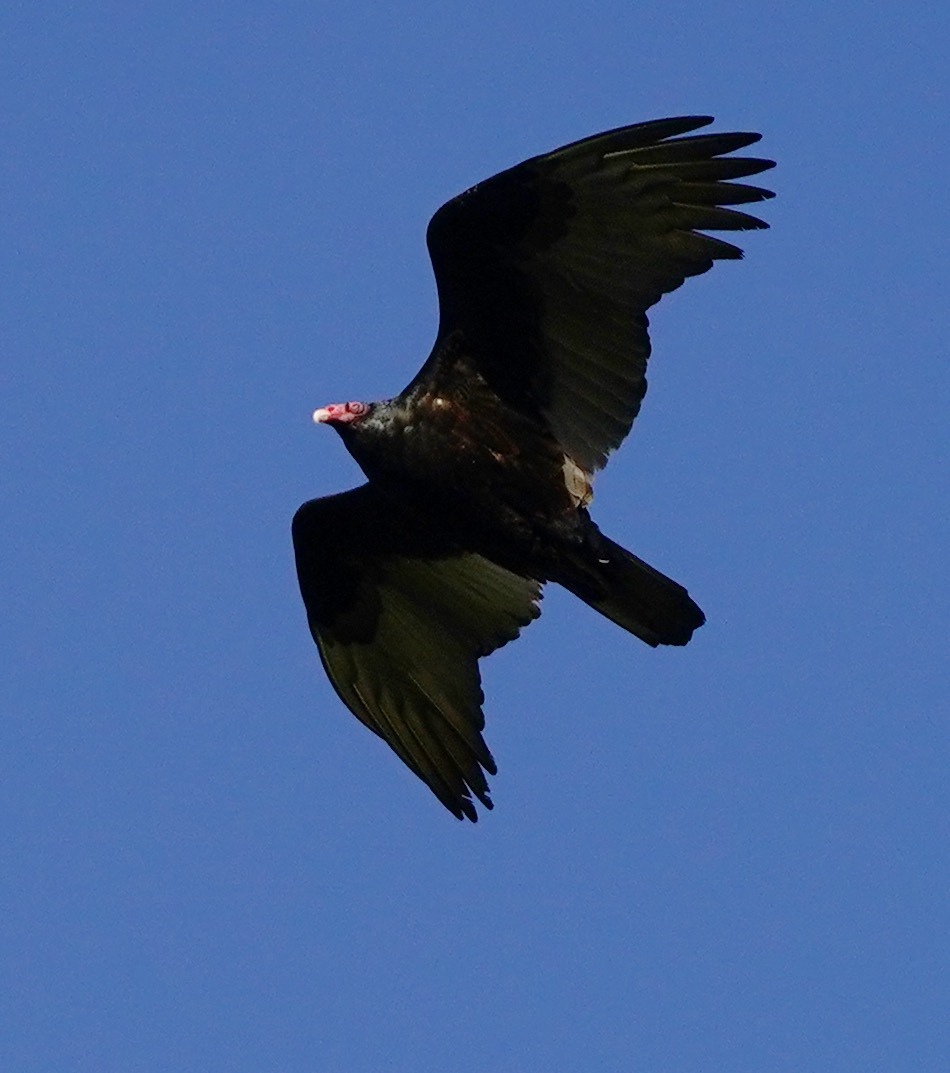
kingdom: Animalia
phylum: Chordata
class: Aves
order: Accipitriformes
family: Cathartidae
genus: Cathartes
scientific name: Cathartes aura
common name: Turkey vulture
